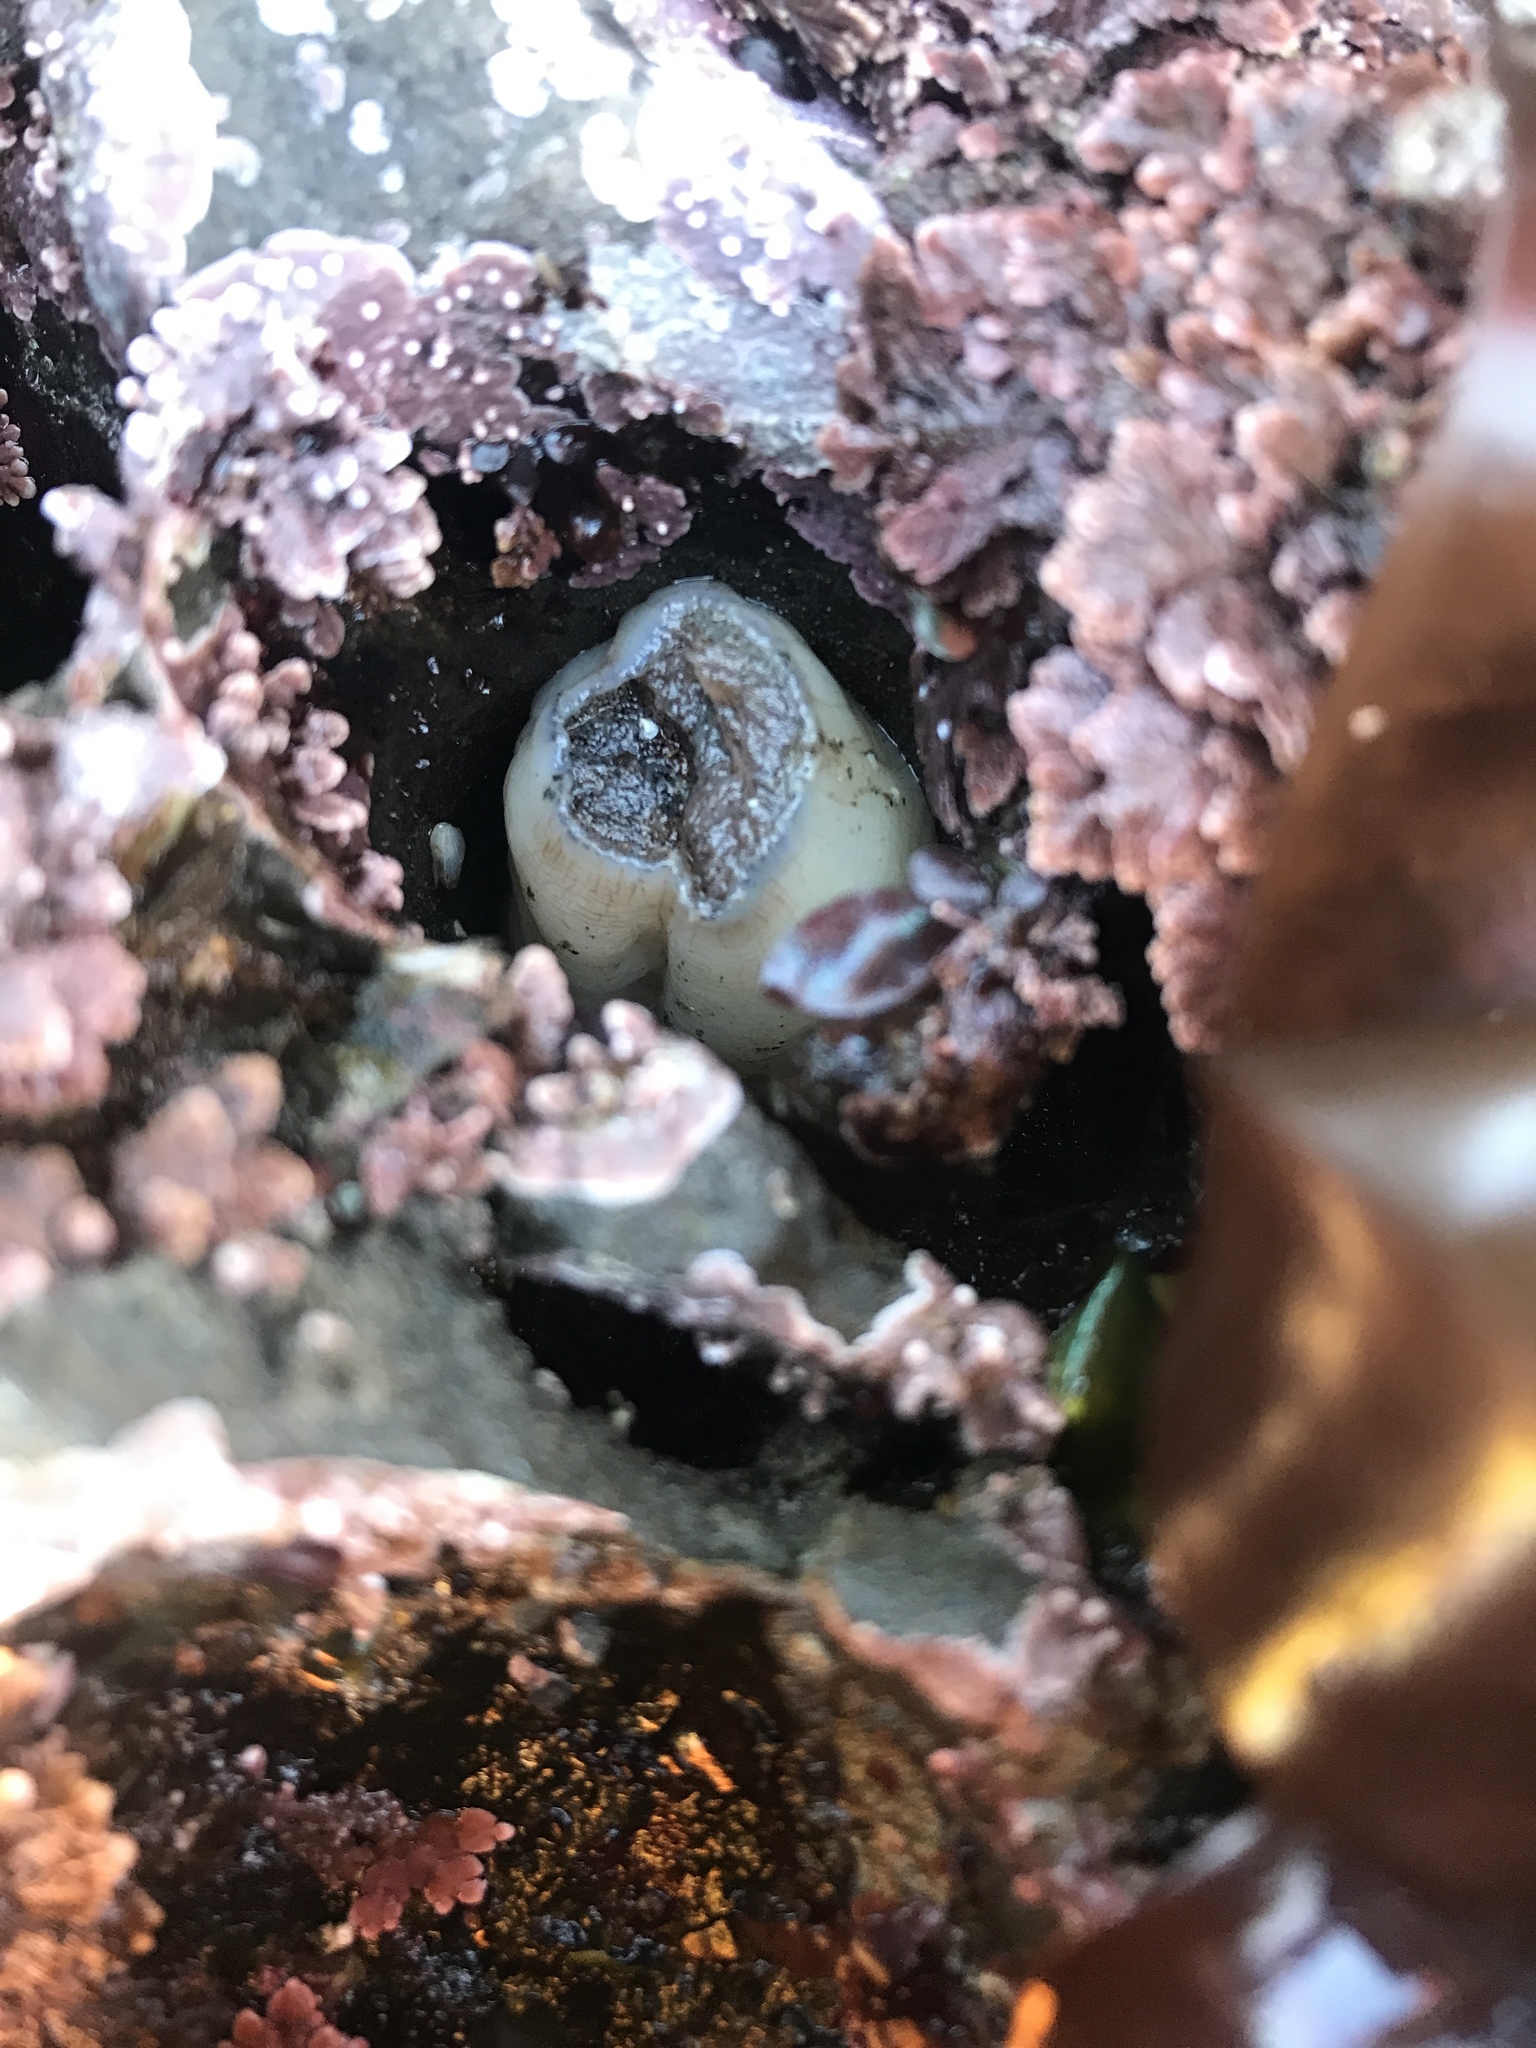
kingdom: Animalia
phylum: Mollusca
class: Bivalvia
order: Myida
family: Pholadidae
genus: Parapholas
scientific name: Parapholas californica
